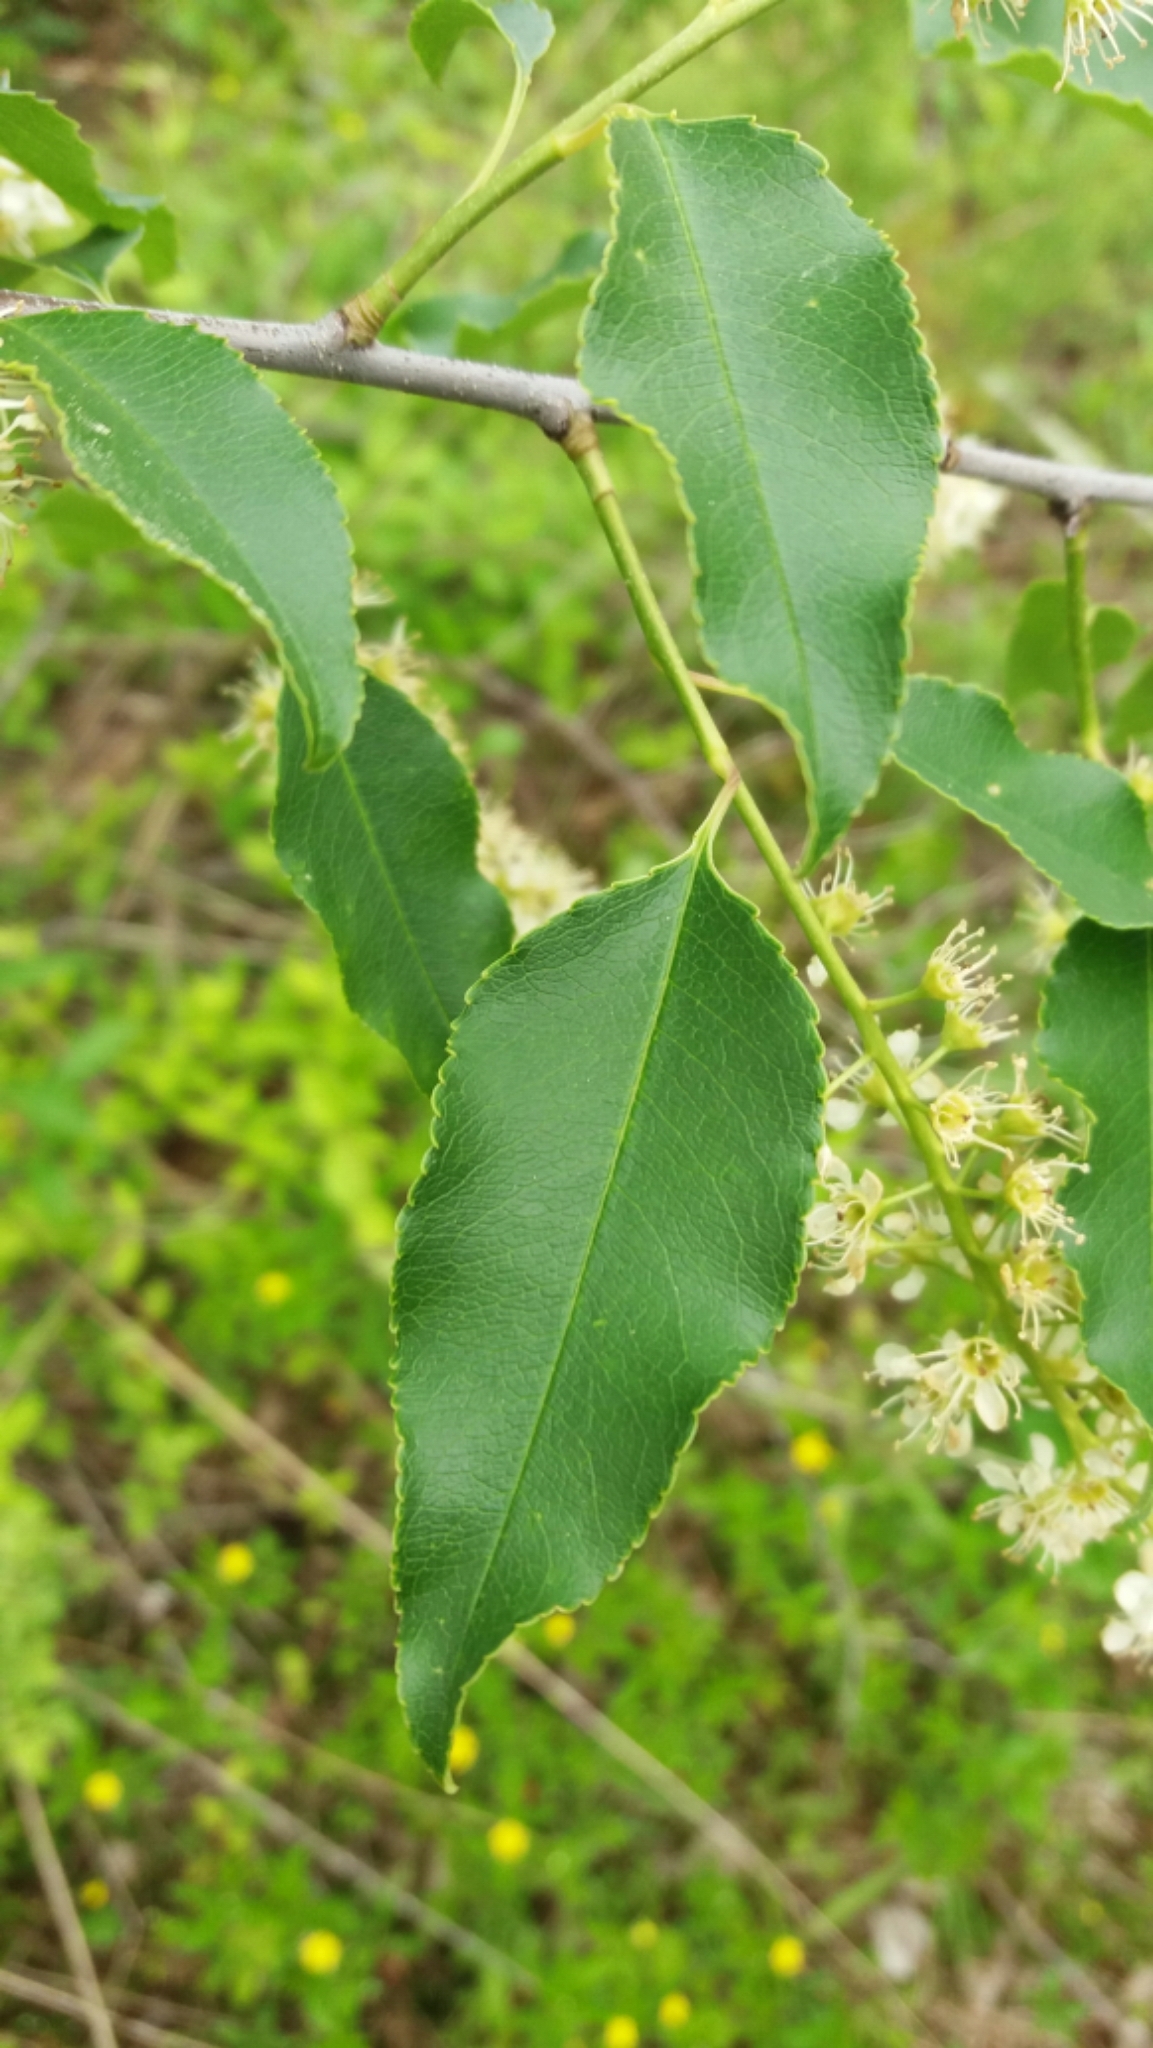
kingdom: Plantae
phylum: Tracheophyta
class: Magnoliopsida
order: Rosales
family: Rosaceae
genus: Prunus
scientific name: Prunus serotina
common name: Black cherry
